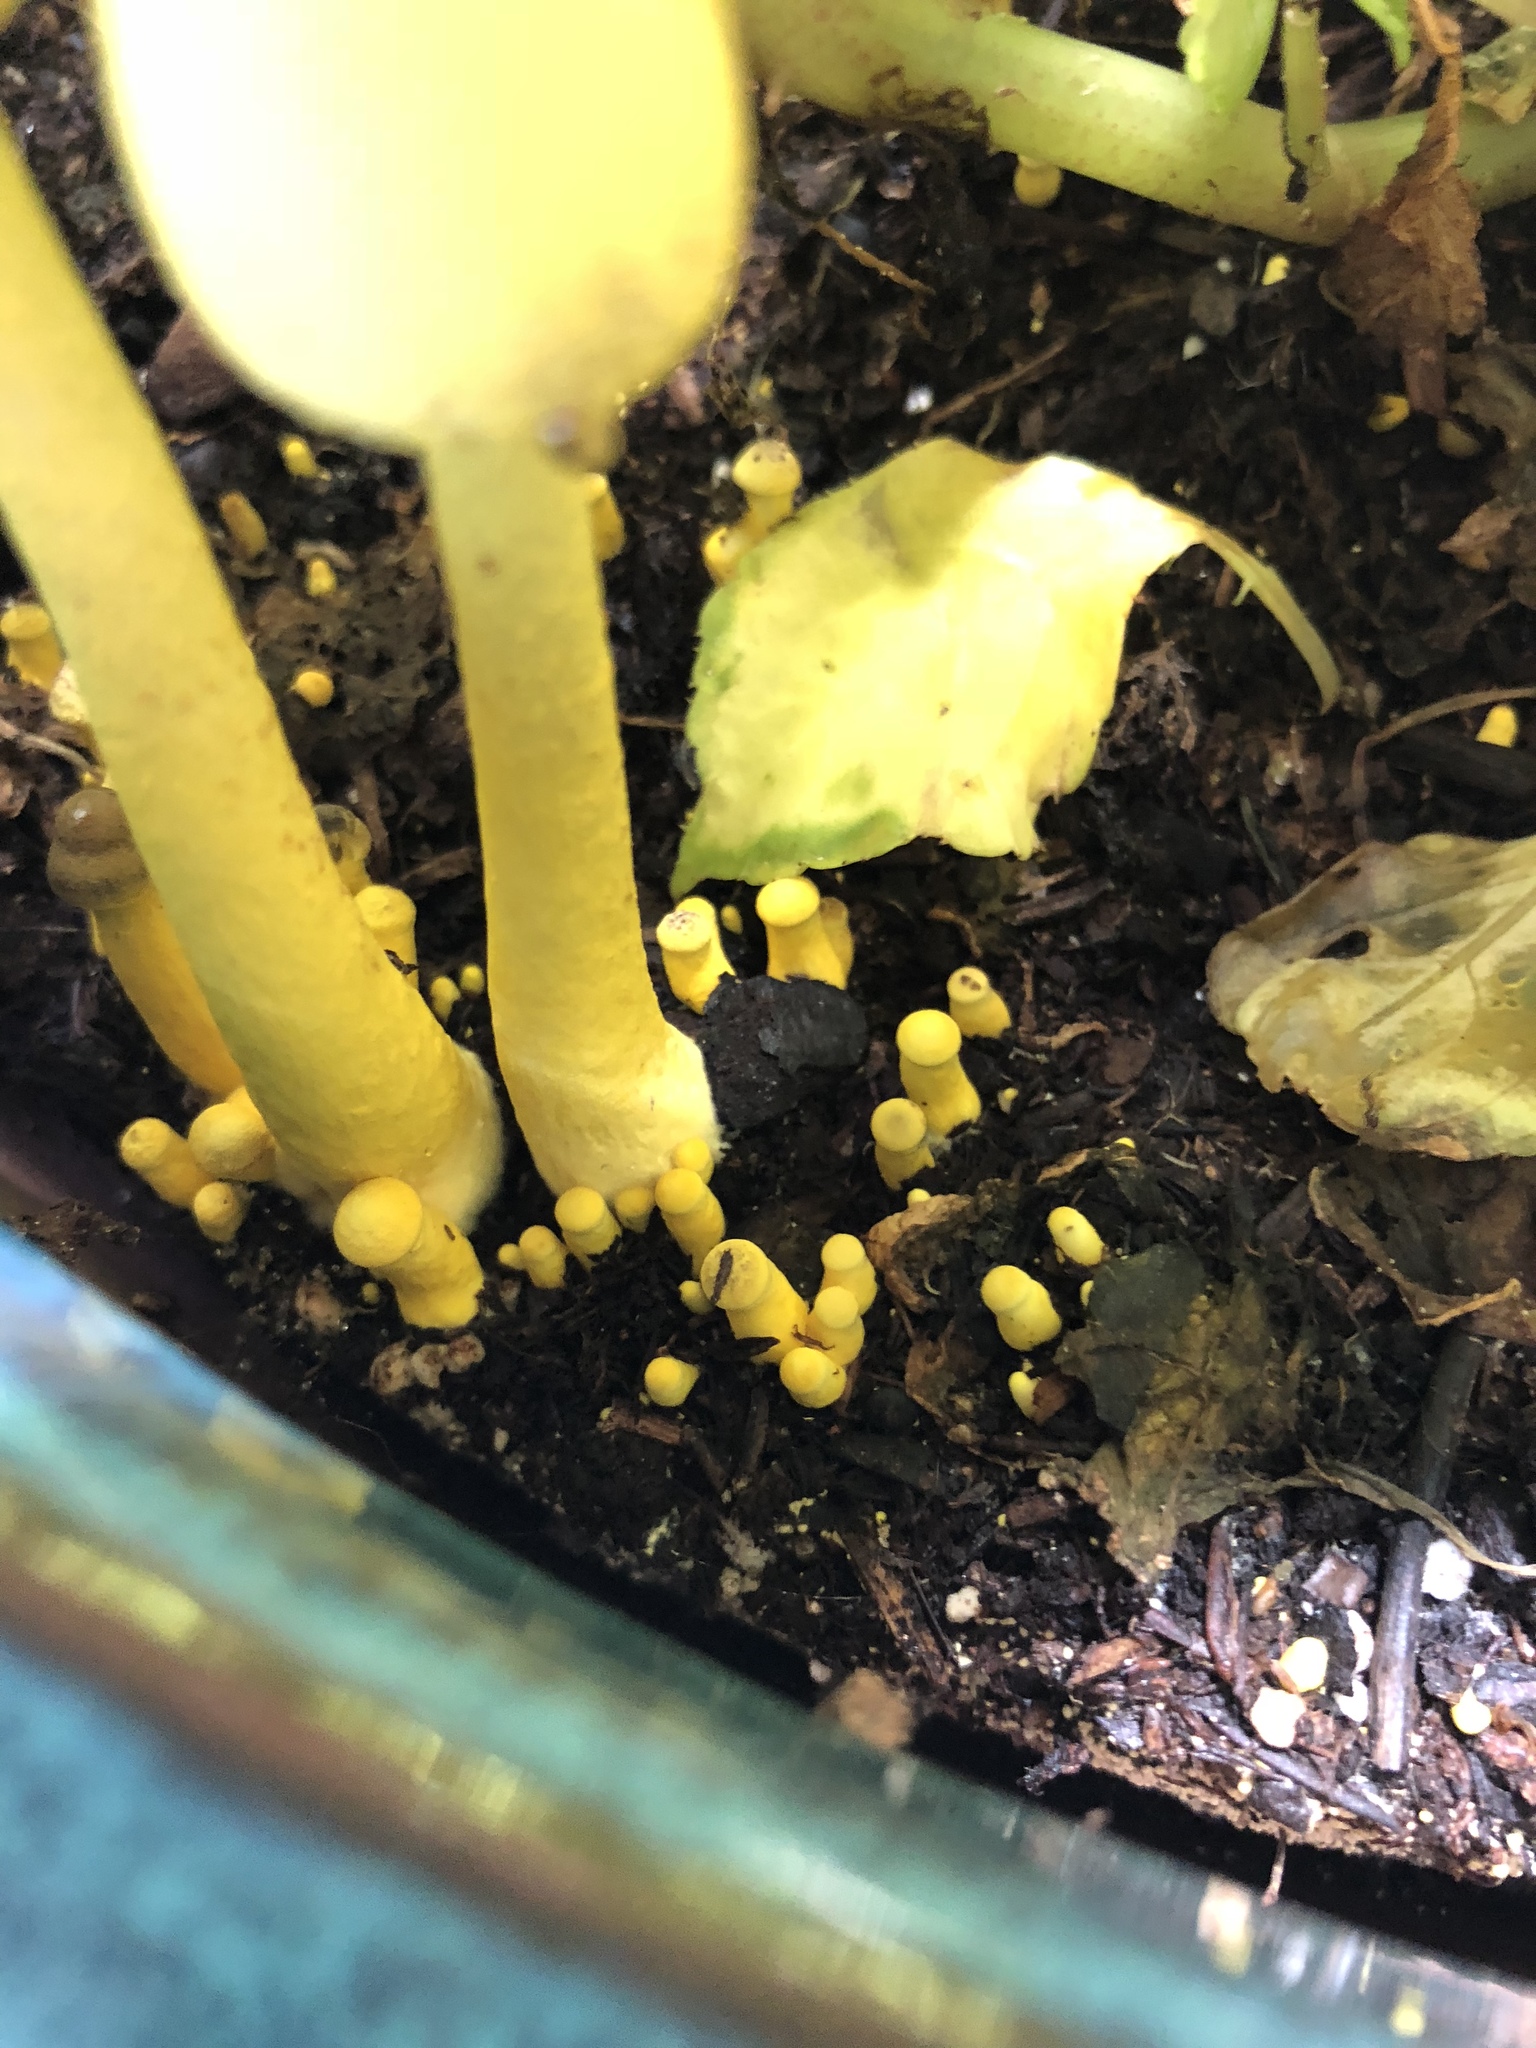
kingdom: Fungi
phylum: Basidiomycota
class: Agaricomycetes
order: Agaricales
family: Agaricaceae
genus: Leucocoprinus
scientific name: Leucocoprinus birnbaumii
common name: Plantpot dapperling
